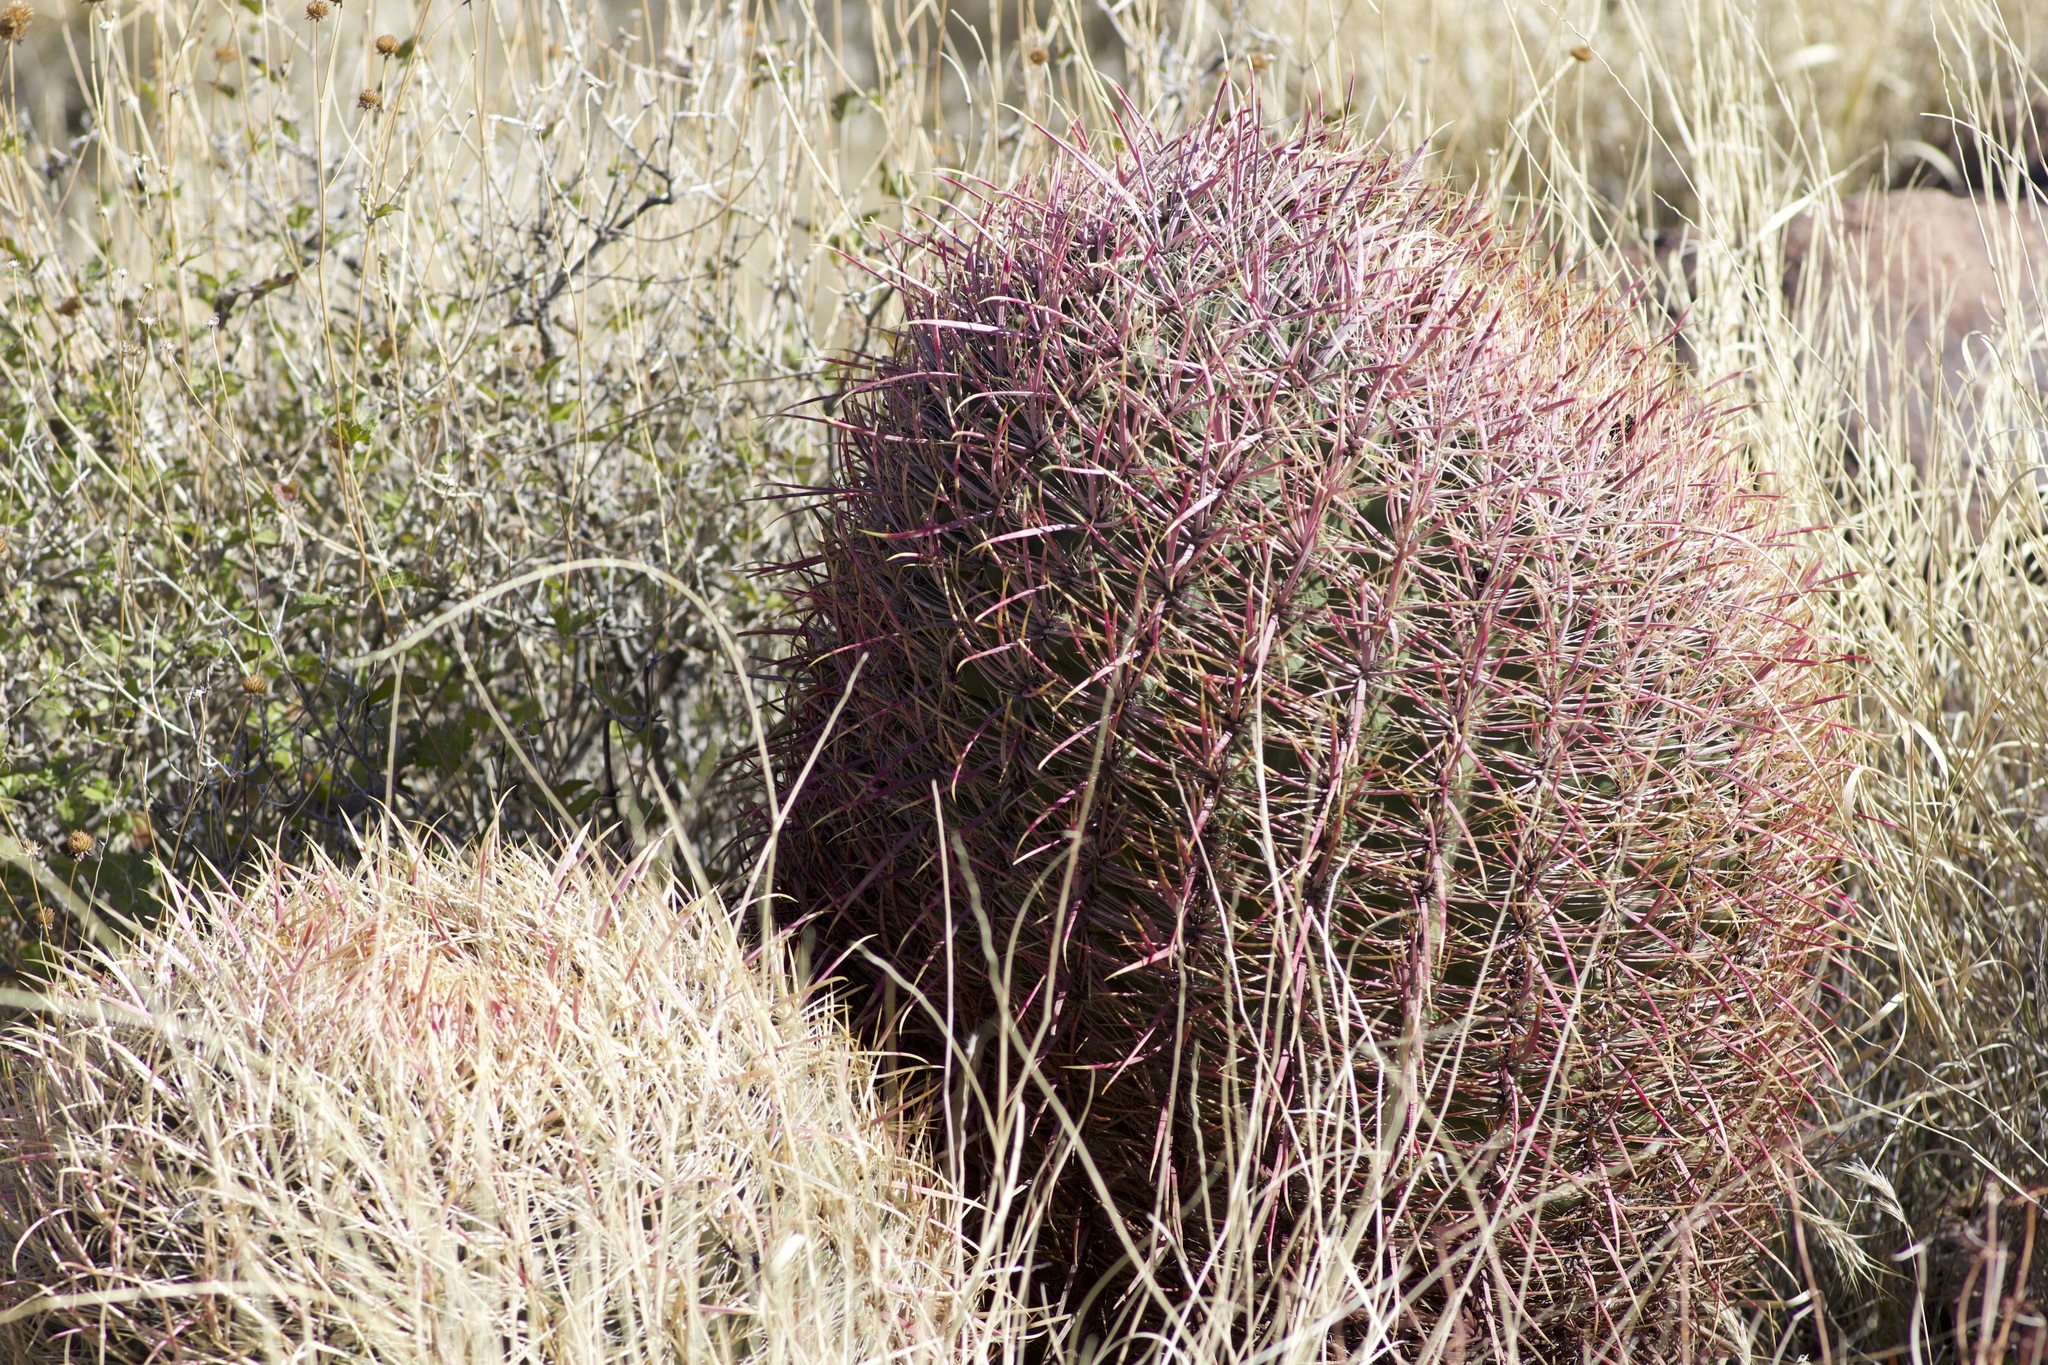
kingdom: Plantae
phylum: Tracheophyta
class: Magnoliopsida
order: Caryophyllales
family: Cactaceae
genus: Ferocactus
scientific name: Ferocactus cylindraceus
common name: California barrel cactus
